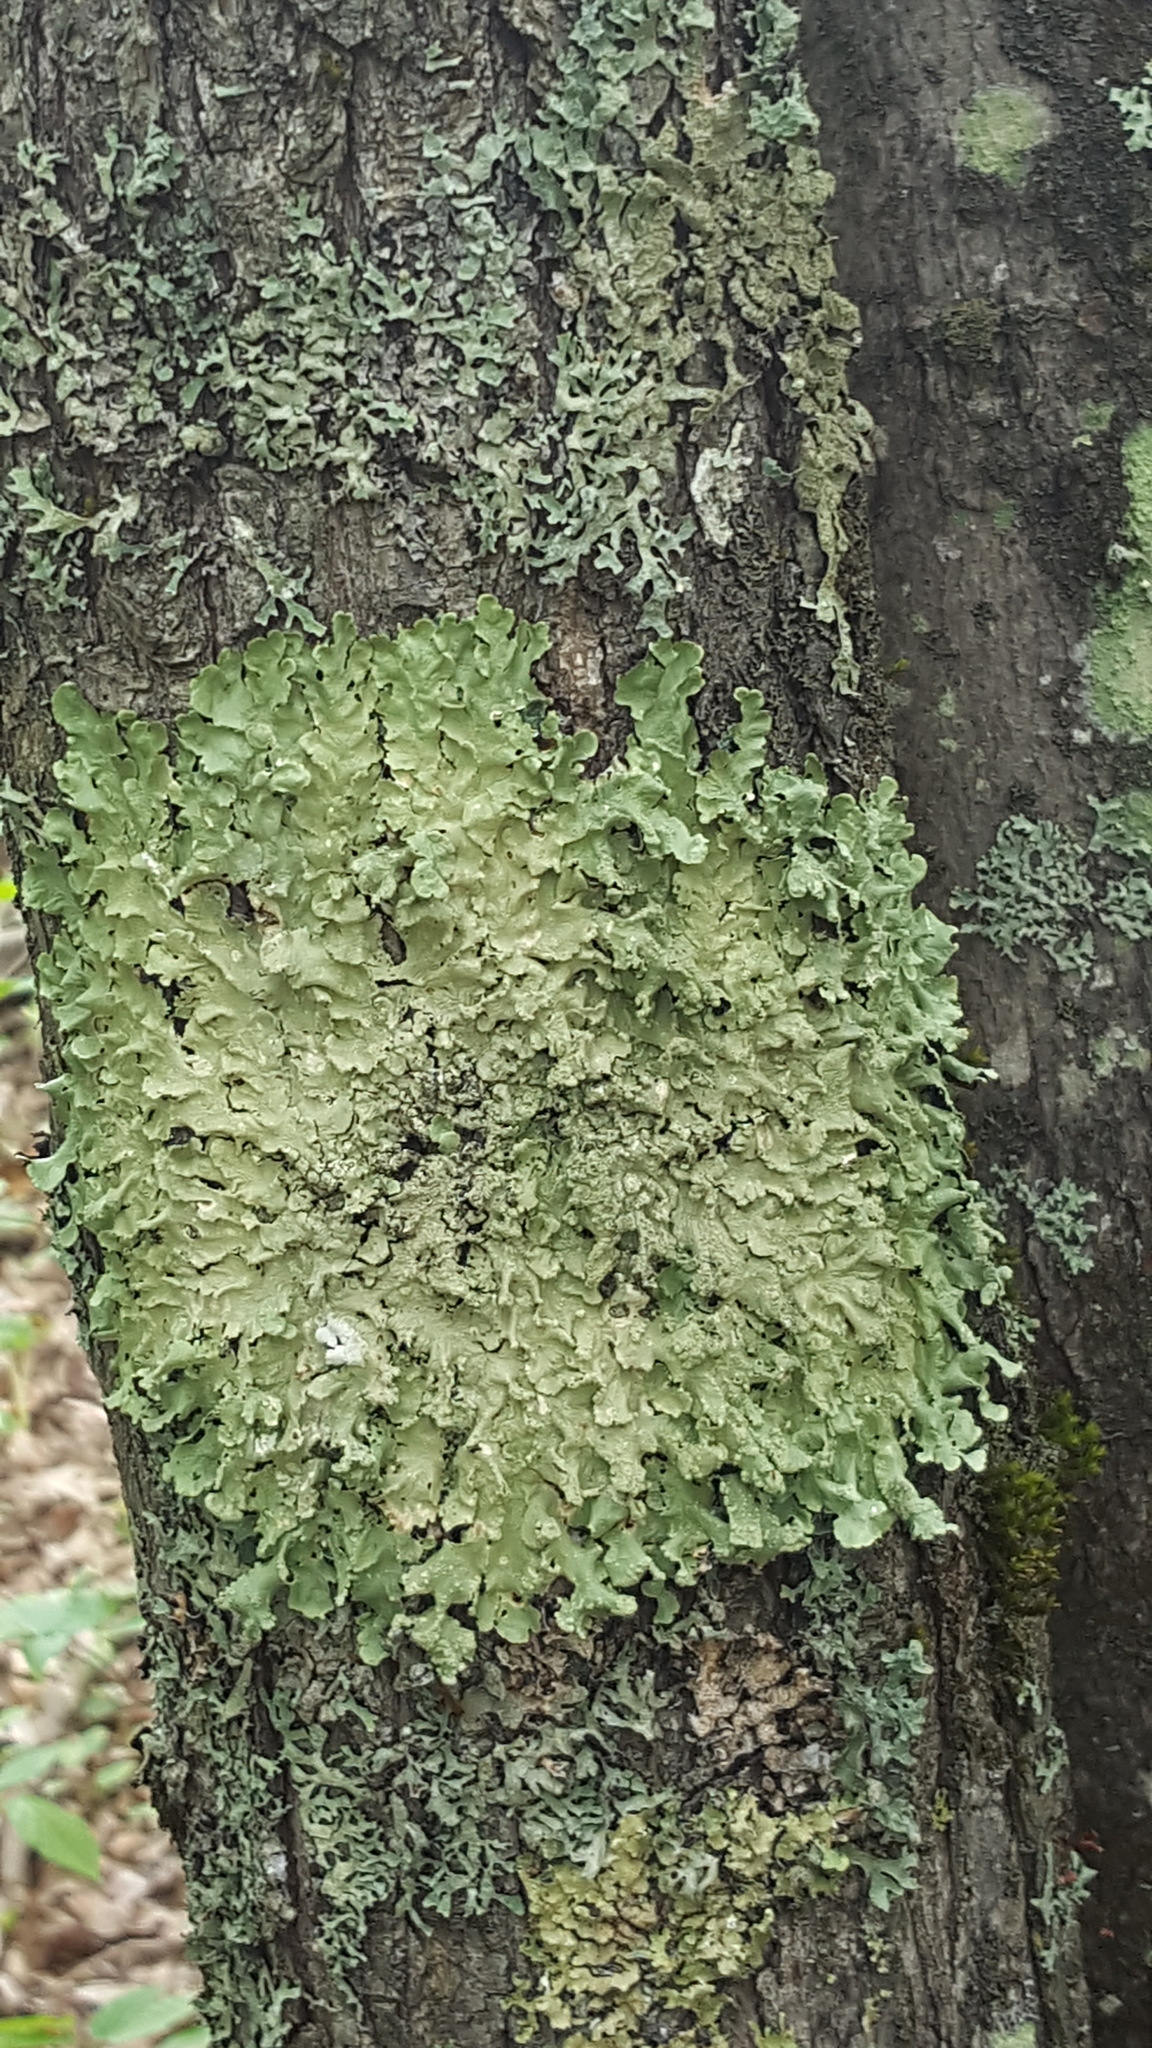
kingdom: Fungi
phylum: Ascomycota
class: Lecanoromycetes
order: Lecanorales
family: Parmeliaceae
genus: Flavoparmelia
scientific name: Flavoparmelia caperata
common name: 40-mile per hour lichen
